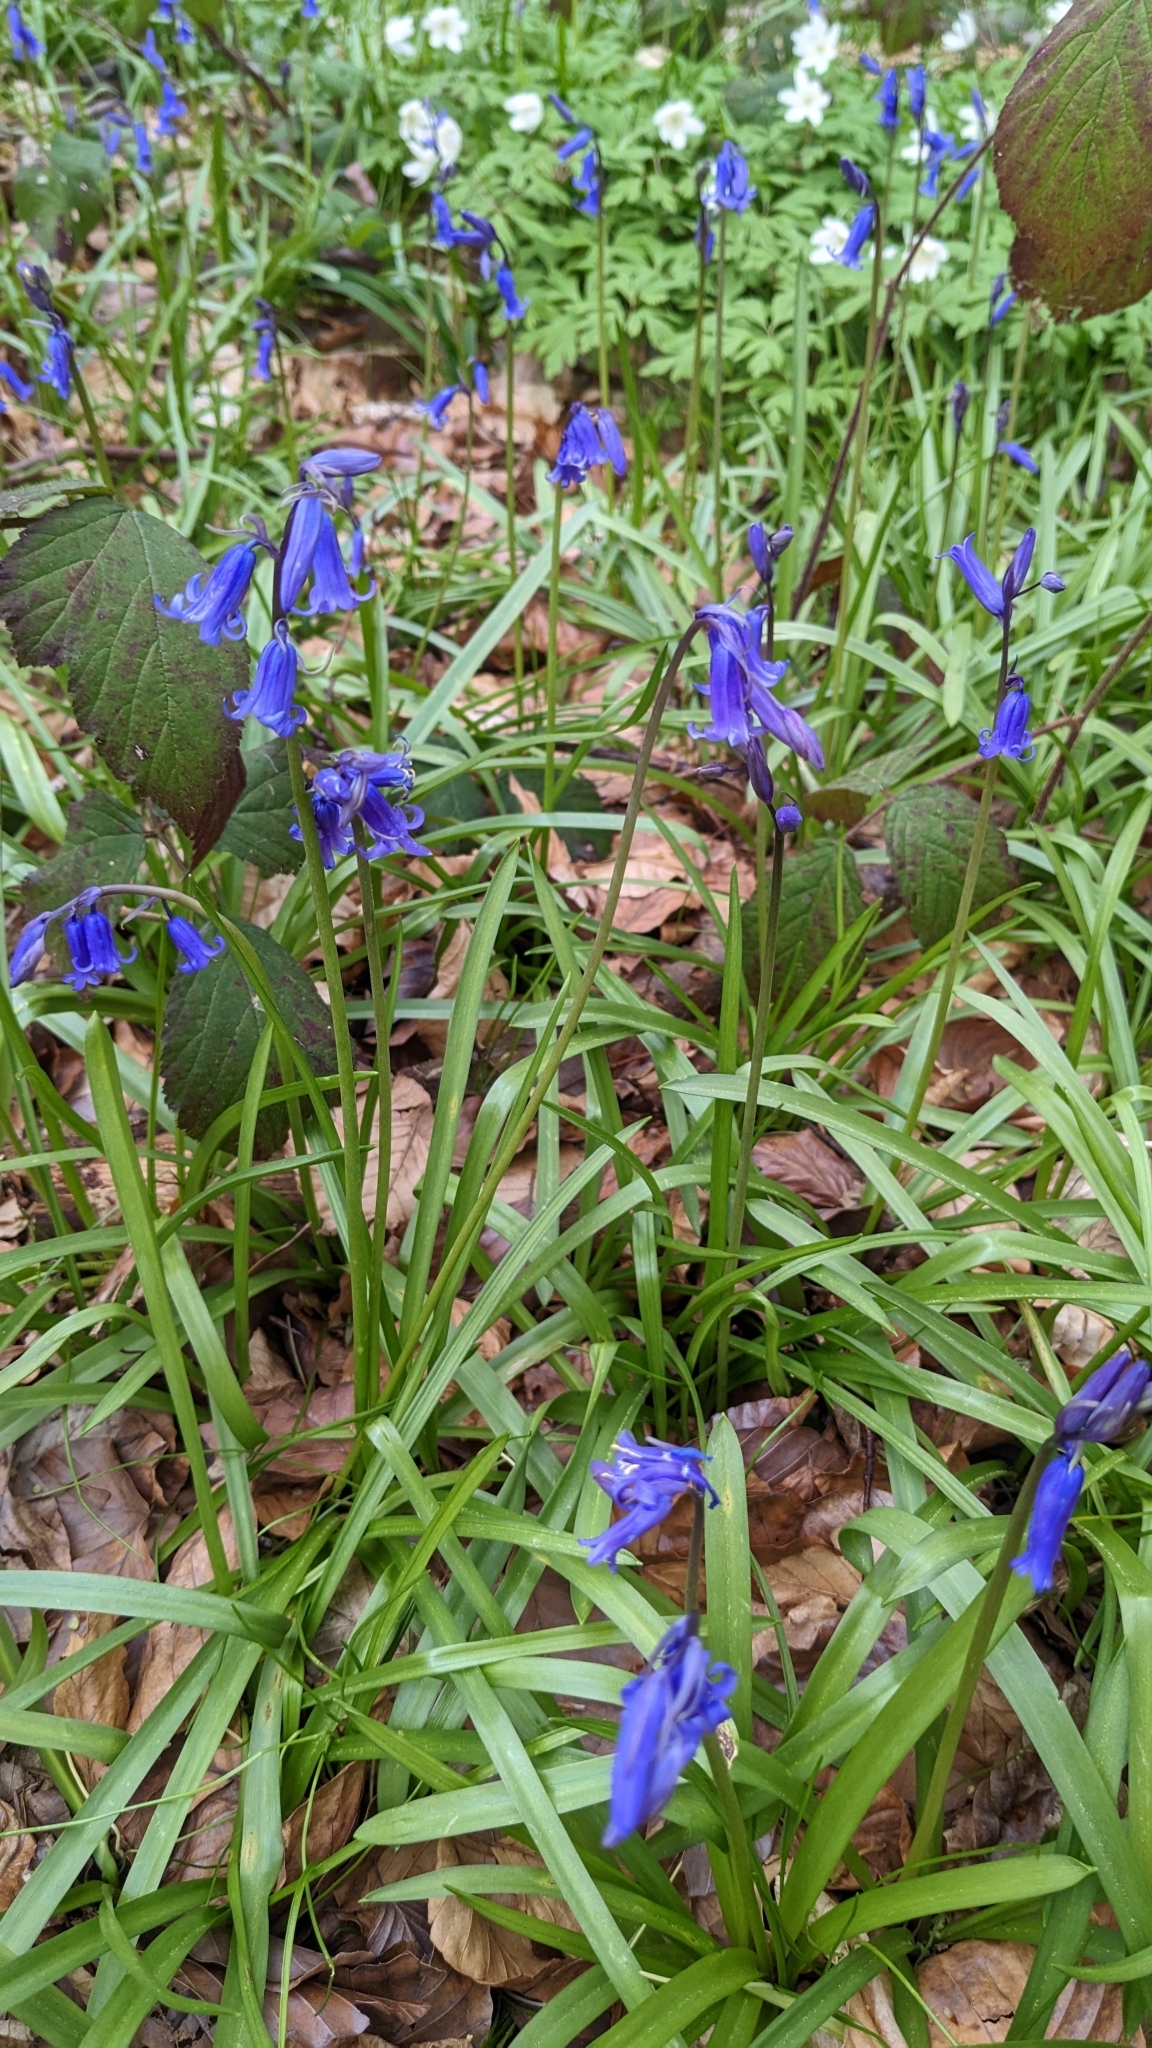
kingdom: Fungi
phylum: Basidiomycota
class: Pucciniomycetes
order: Pucciniales
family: Pucciniaceae
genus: Uromyces
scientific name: Uromyces hyacinthi
